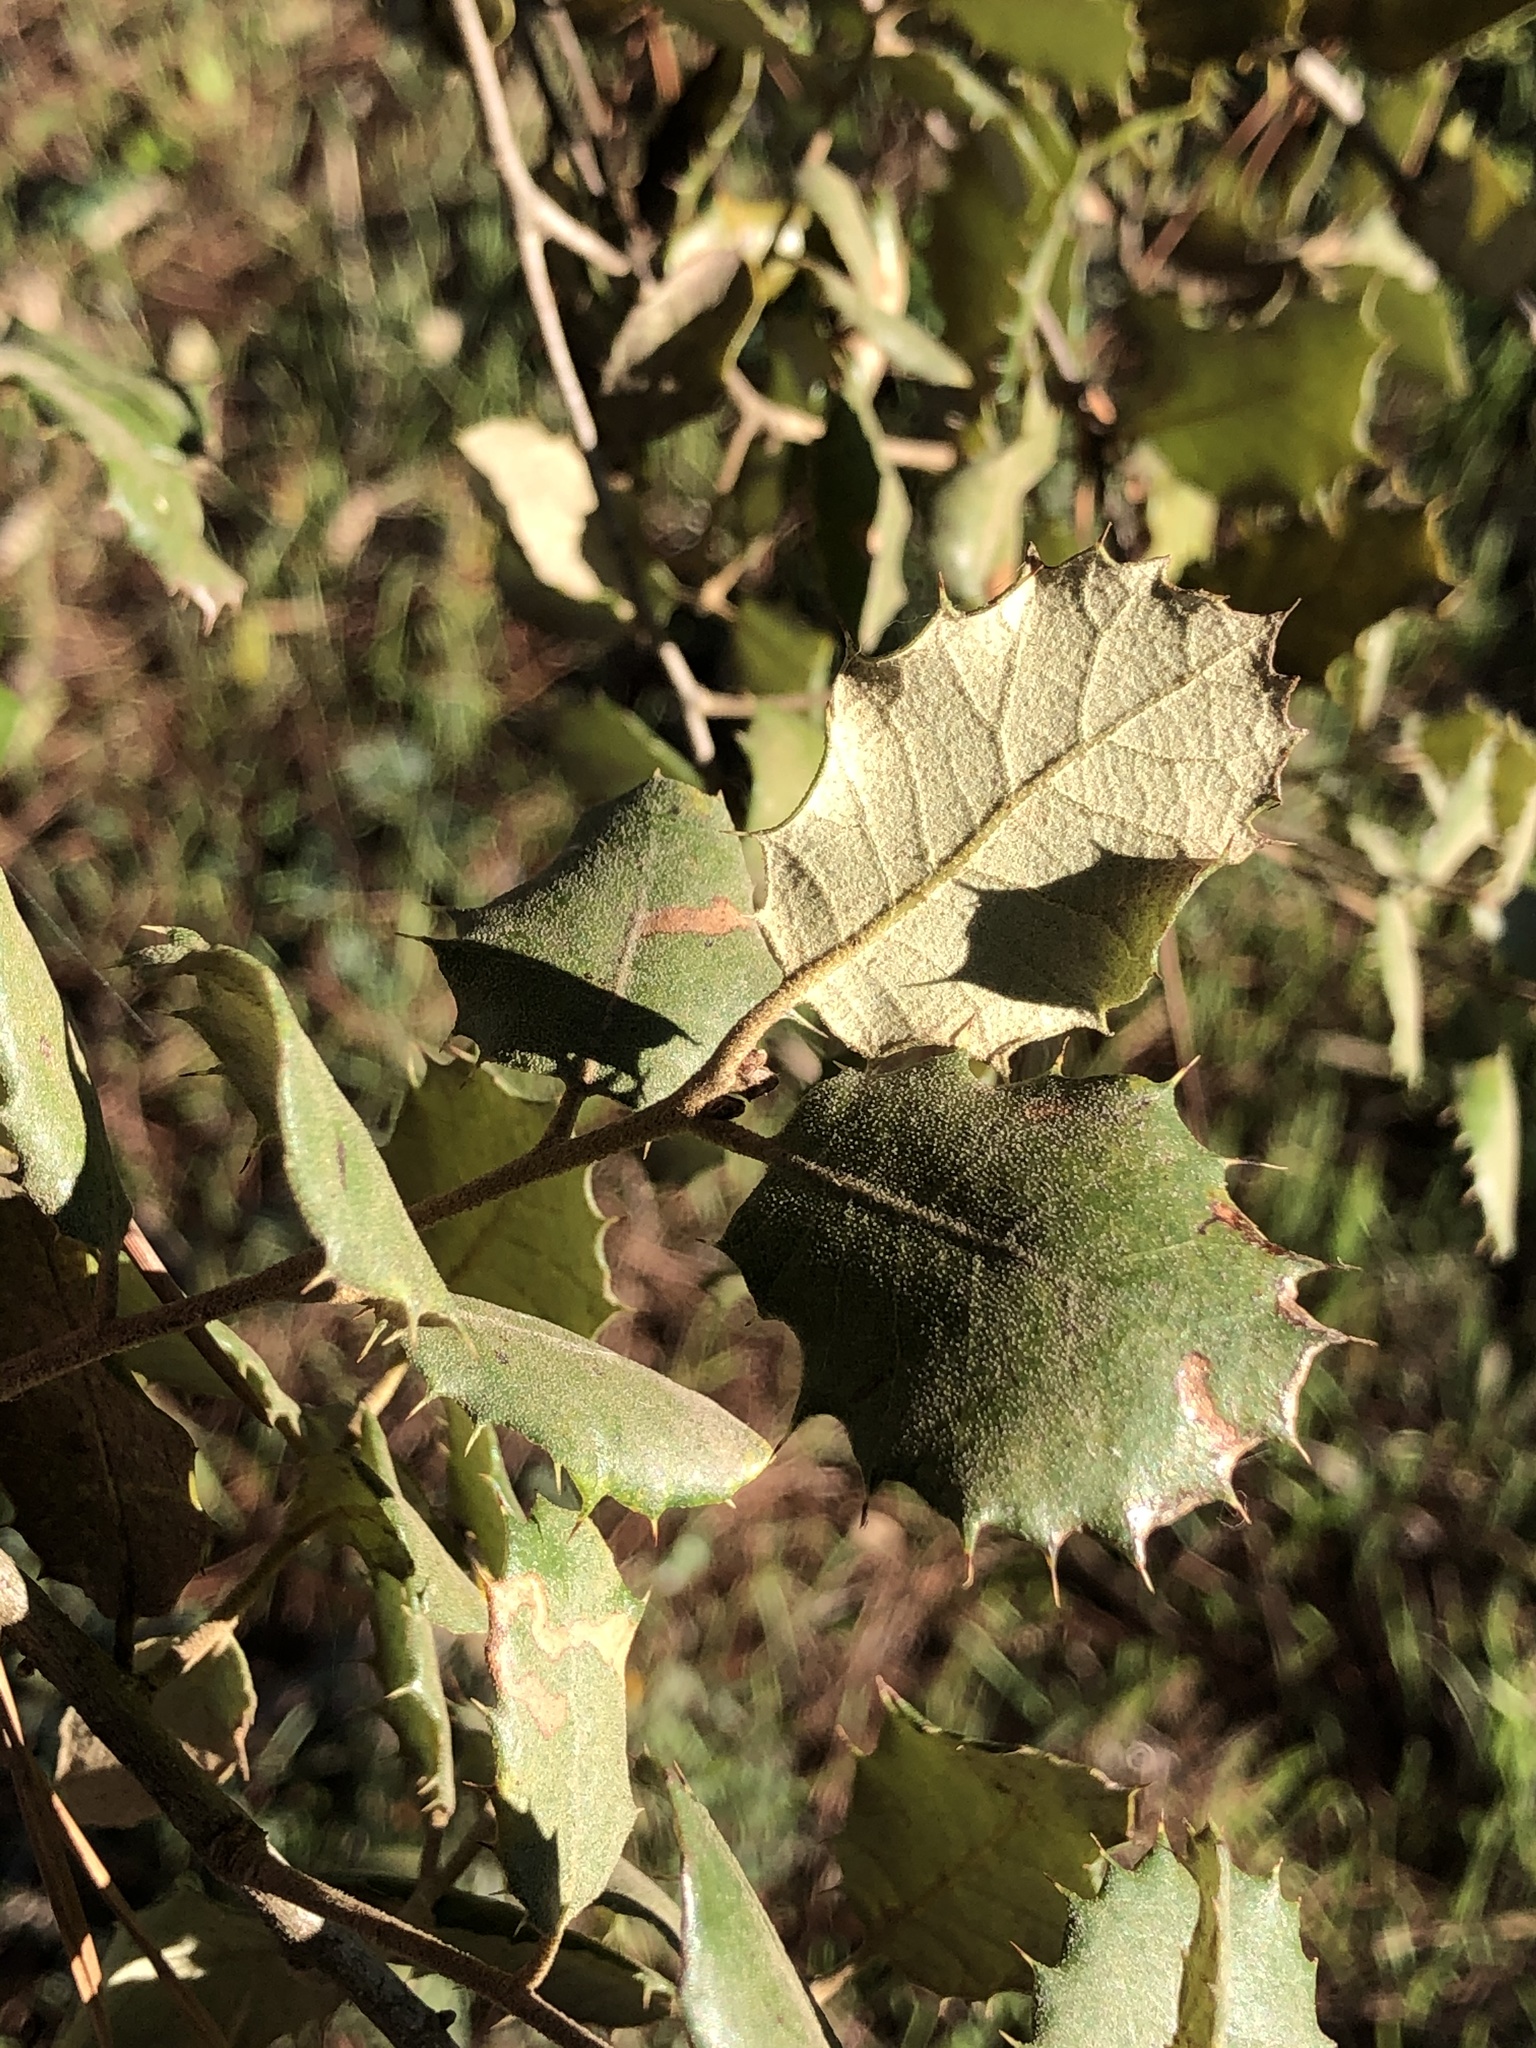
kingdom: Plantae
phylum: Tracheophyta
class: Magnoliopsida
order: Fagales
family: Fagaceae
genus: Quercus
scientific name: Quercus rotundifolia
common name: Holm oak
